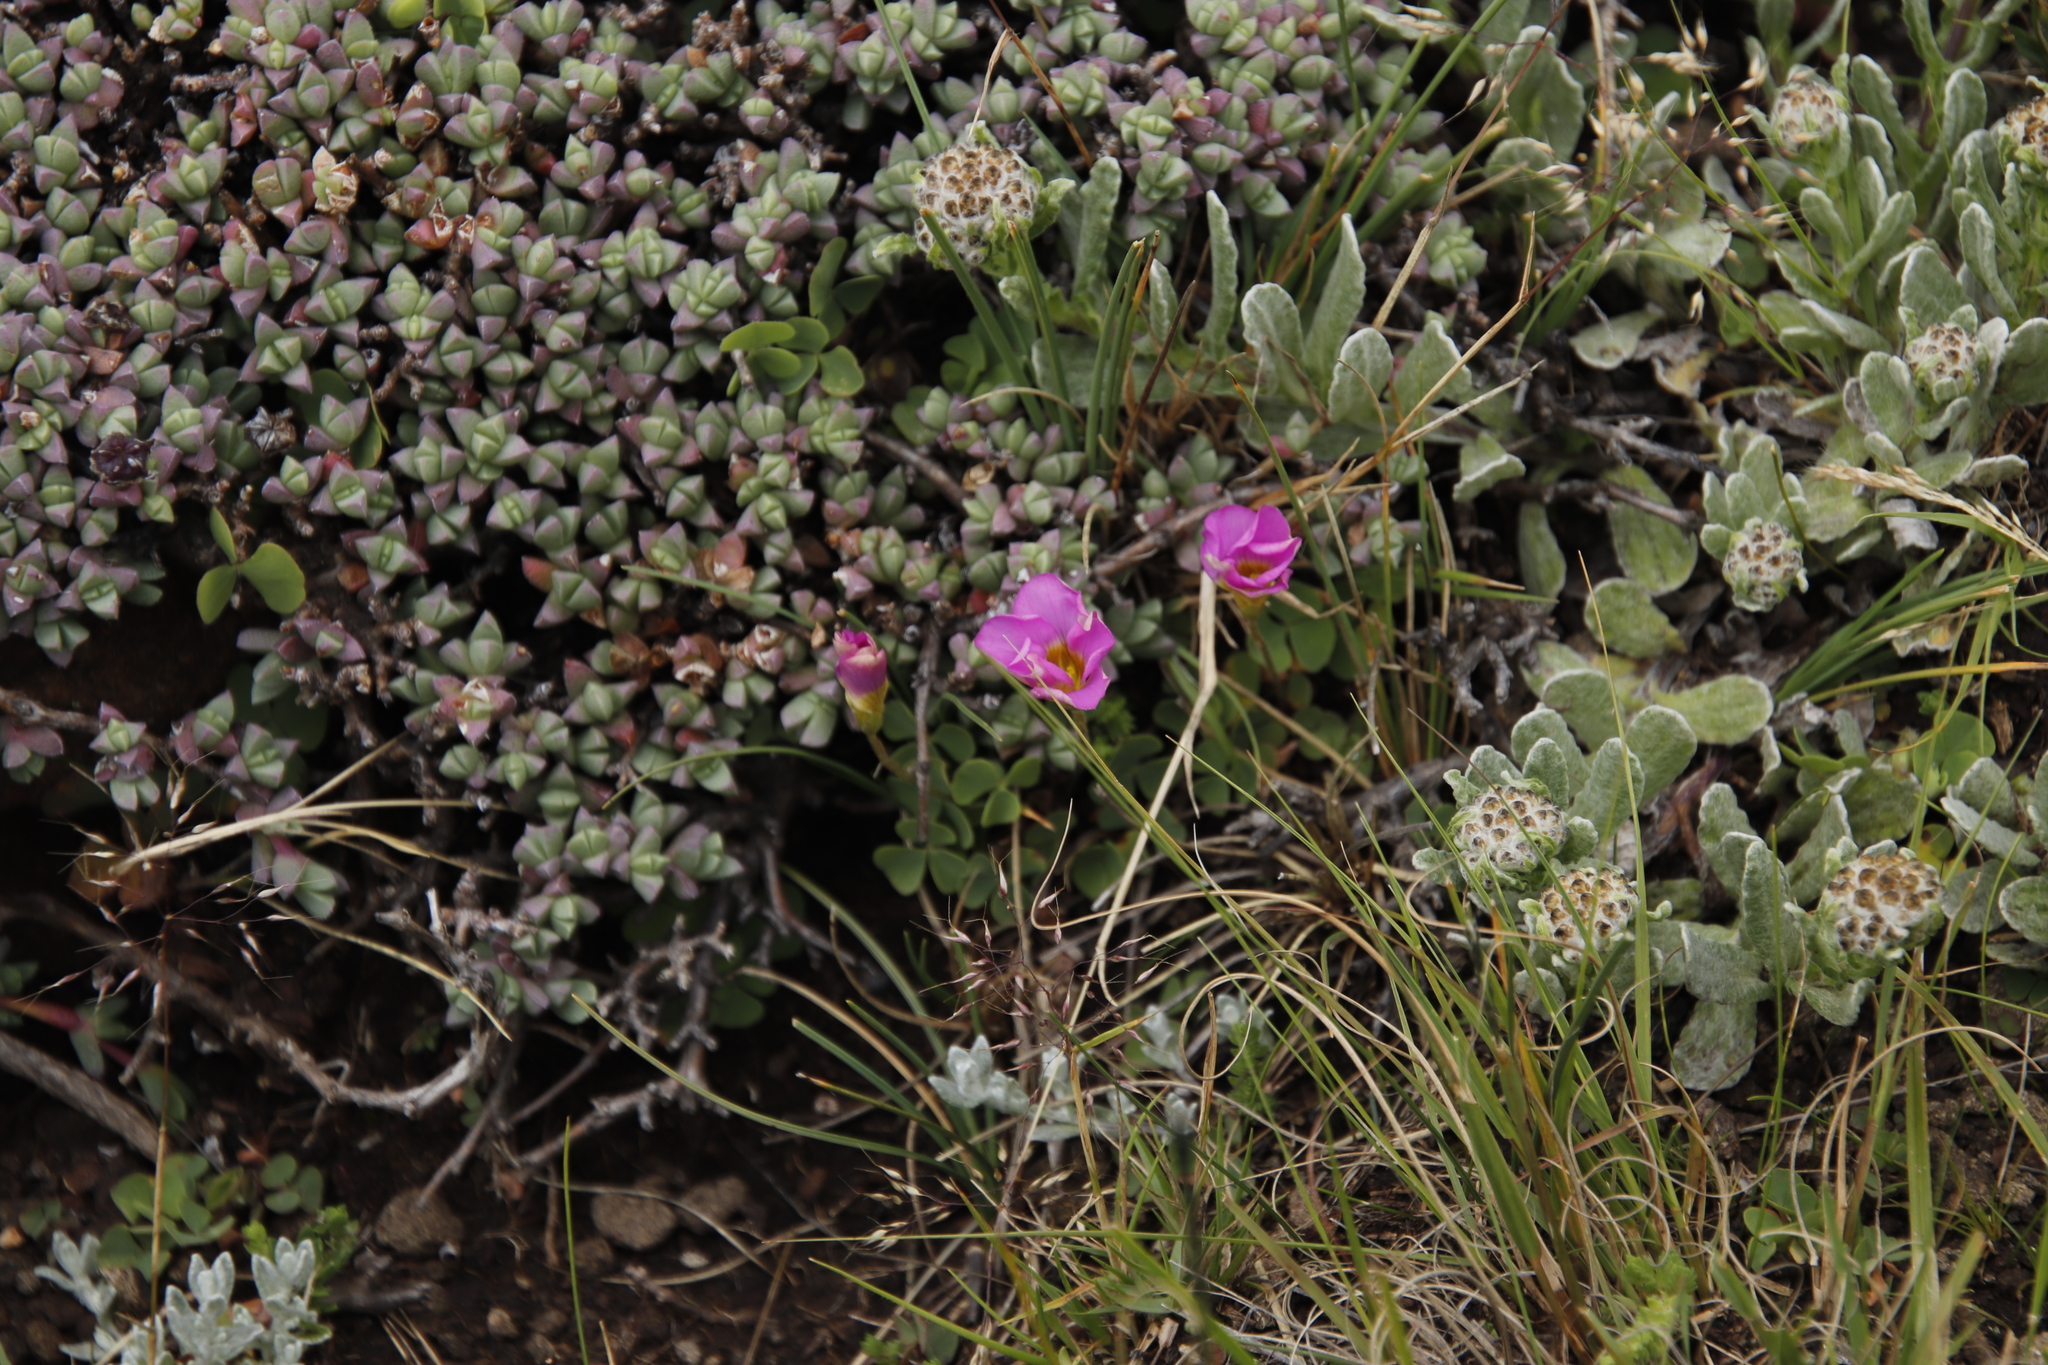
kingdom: Plantae
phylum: Tracheophyta
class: Magnoliopsida
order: Oxalidales
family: Oxalidaceae
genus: Oxalis
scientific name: Oxalis obliquifolia
